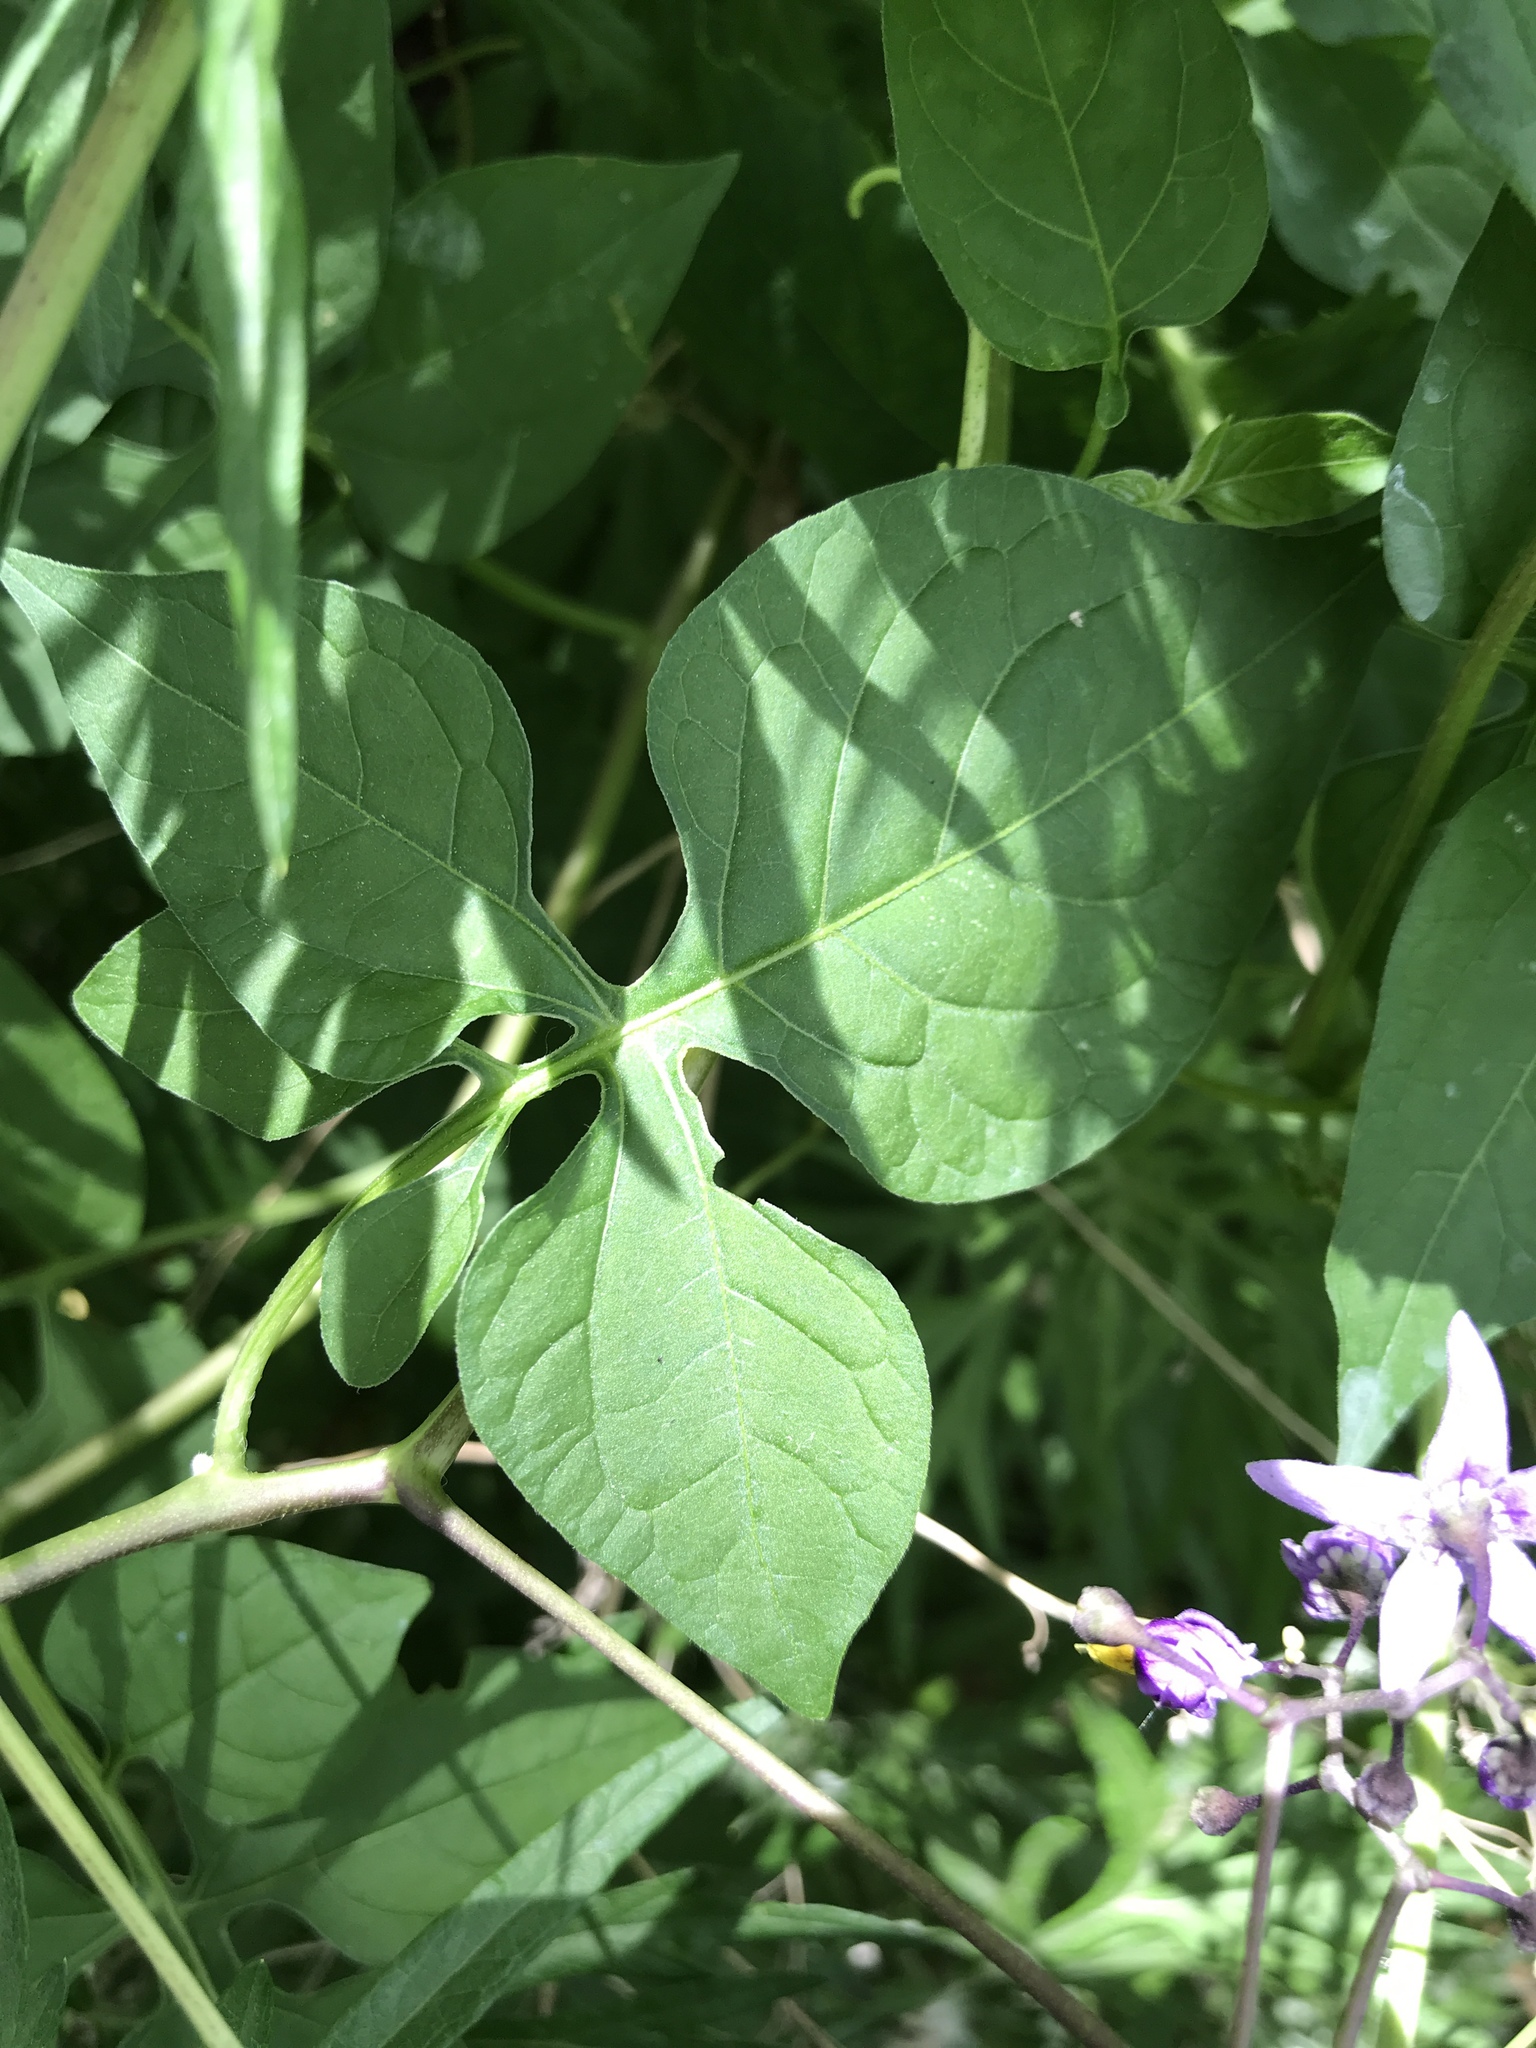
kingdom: Plantae
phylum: Tracheophyta
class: Magnoliopsida
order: Solanales
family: Solanaceae
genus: Solanum
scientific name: Solanum dulcamara
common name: Climbing nightshade
